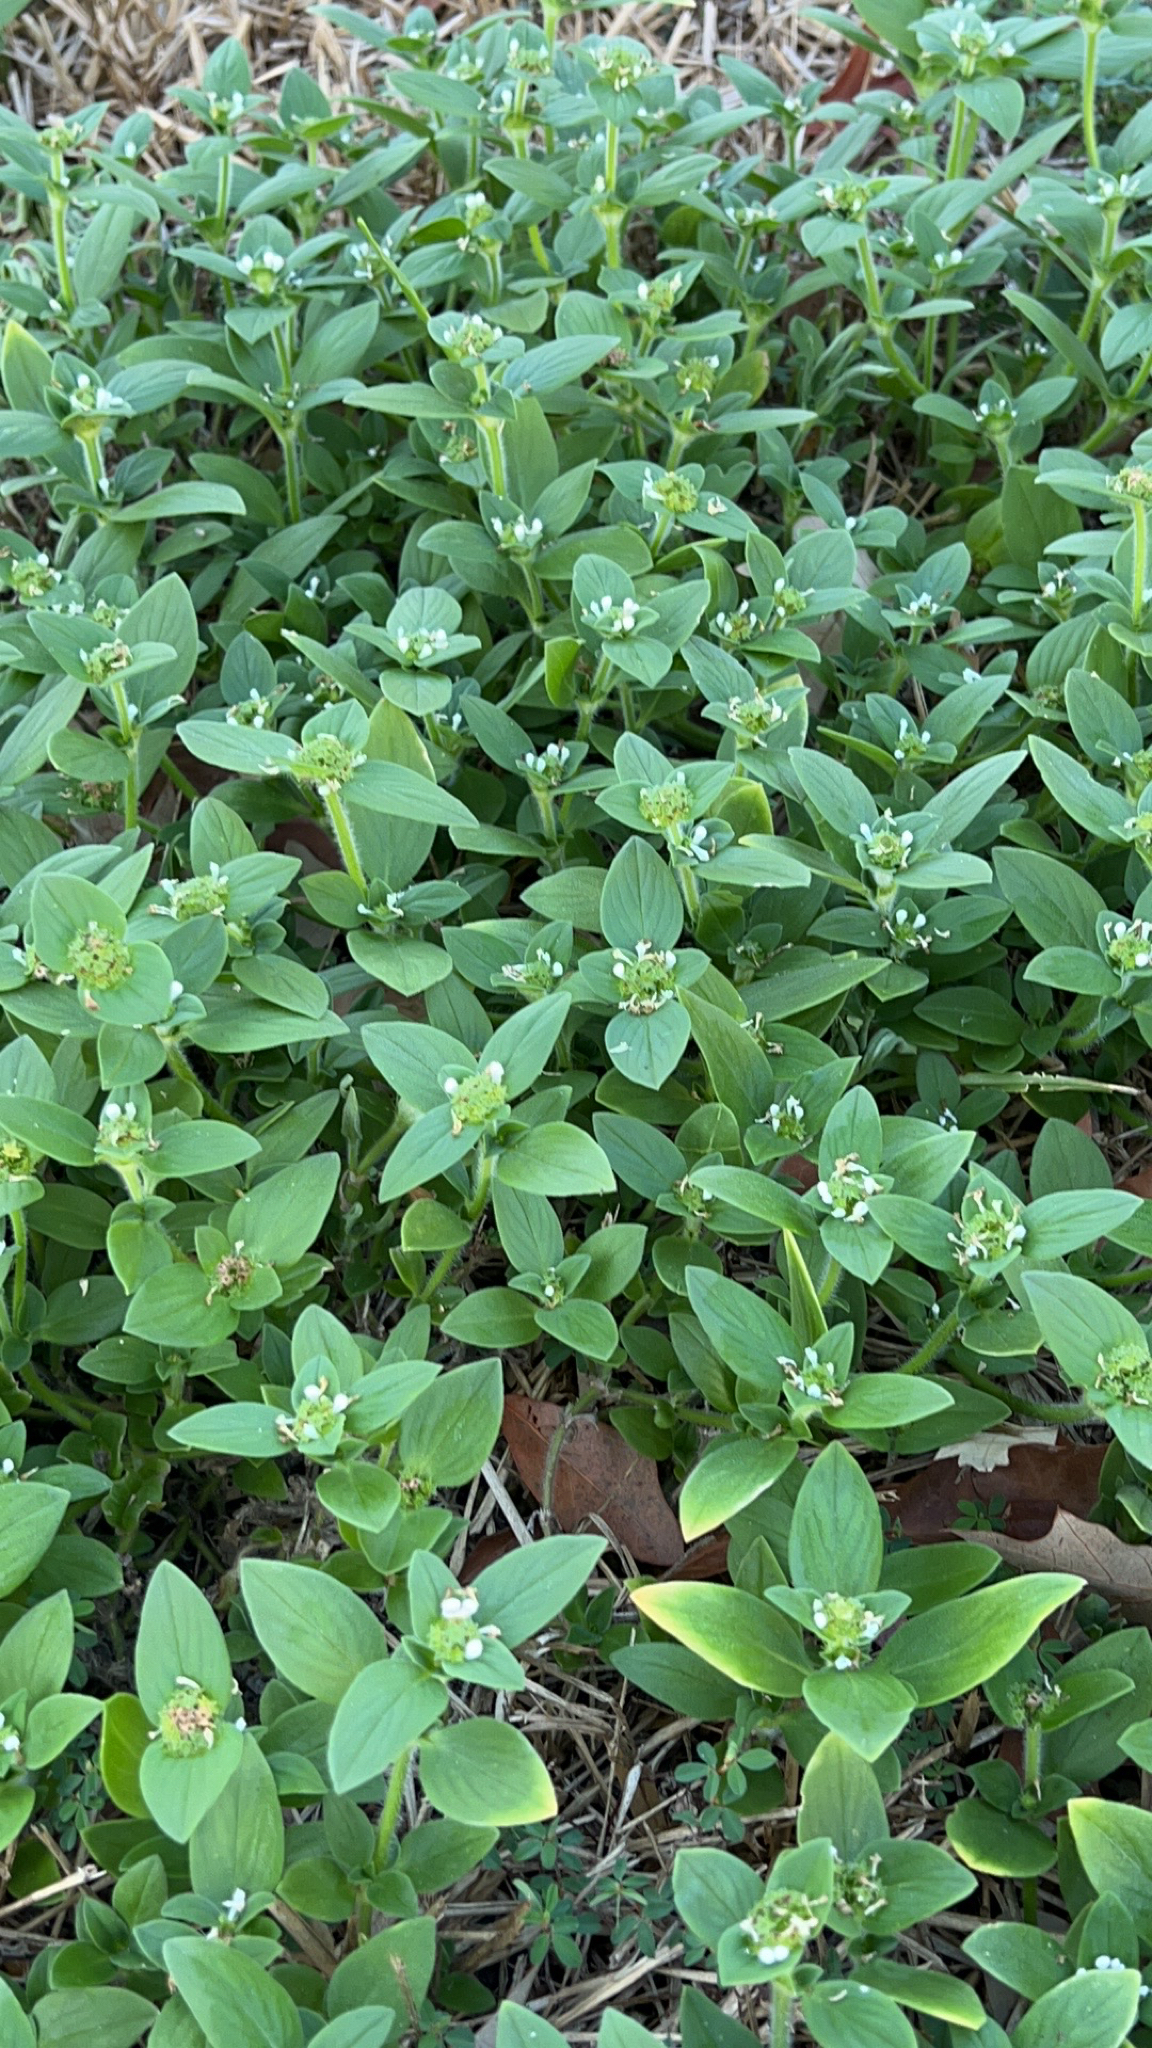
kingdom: Plantae
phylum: Tracheophyta
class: Magnoliopsida
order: Gentianales
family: Rubiaceae
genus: Richardia
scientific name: Richardia brasiliensis
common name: Tropical mexican clover
